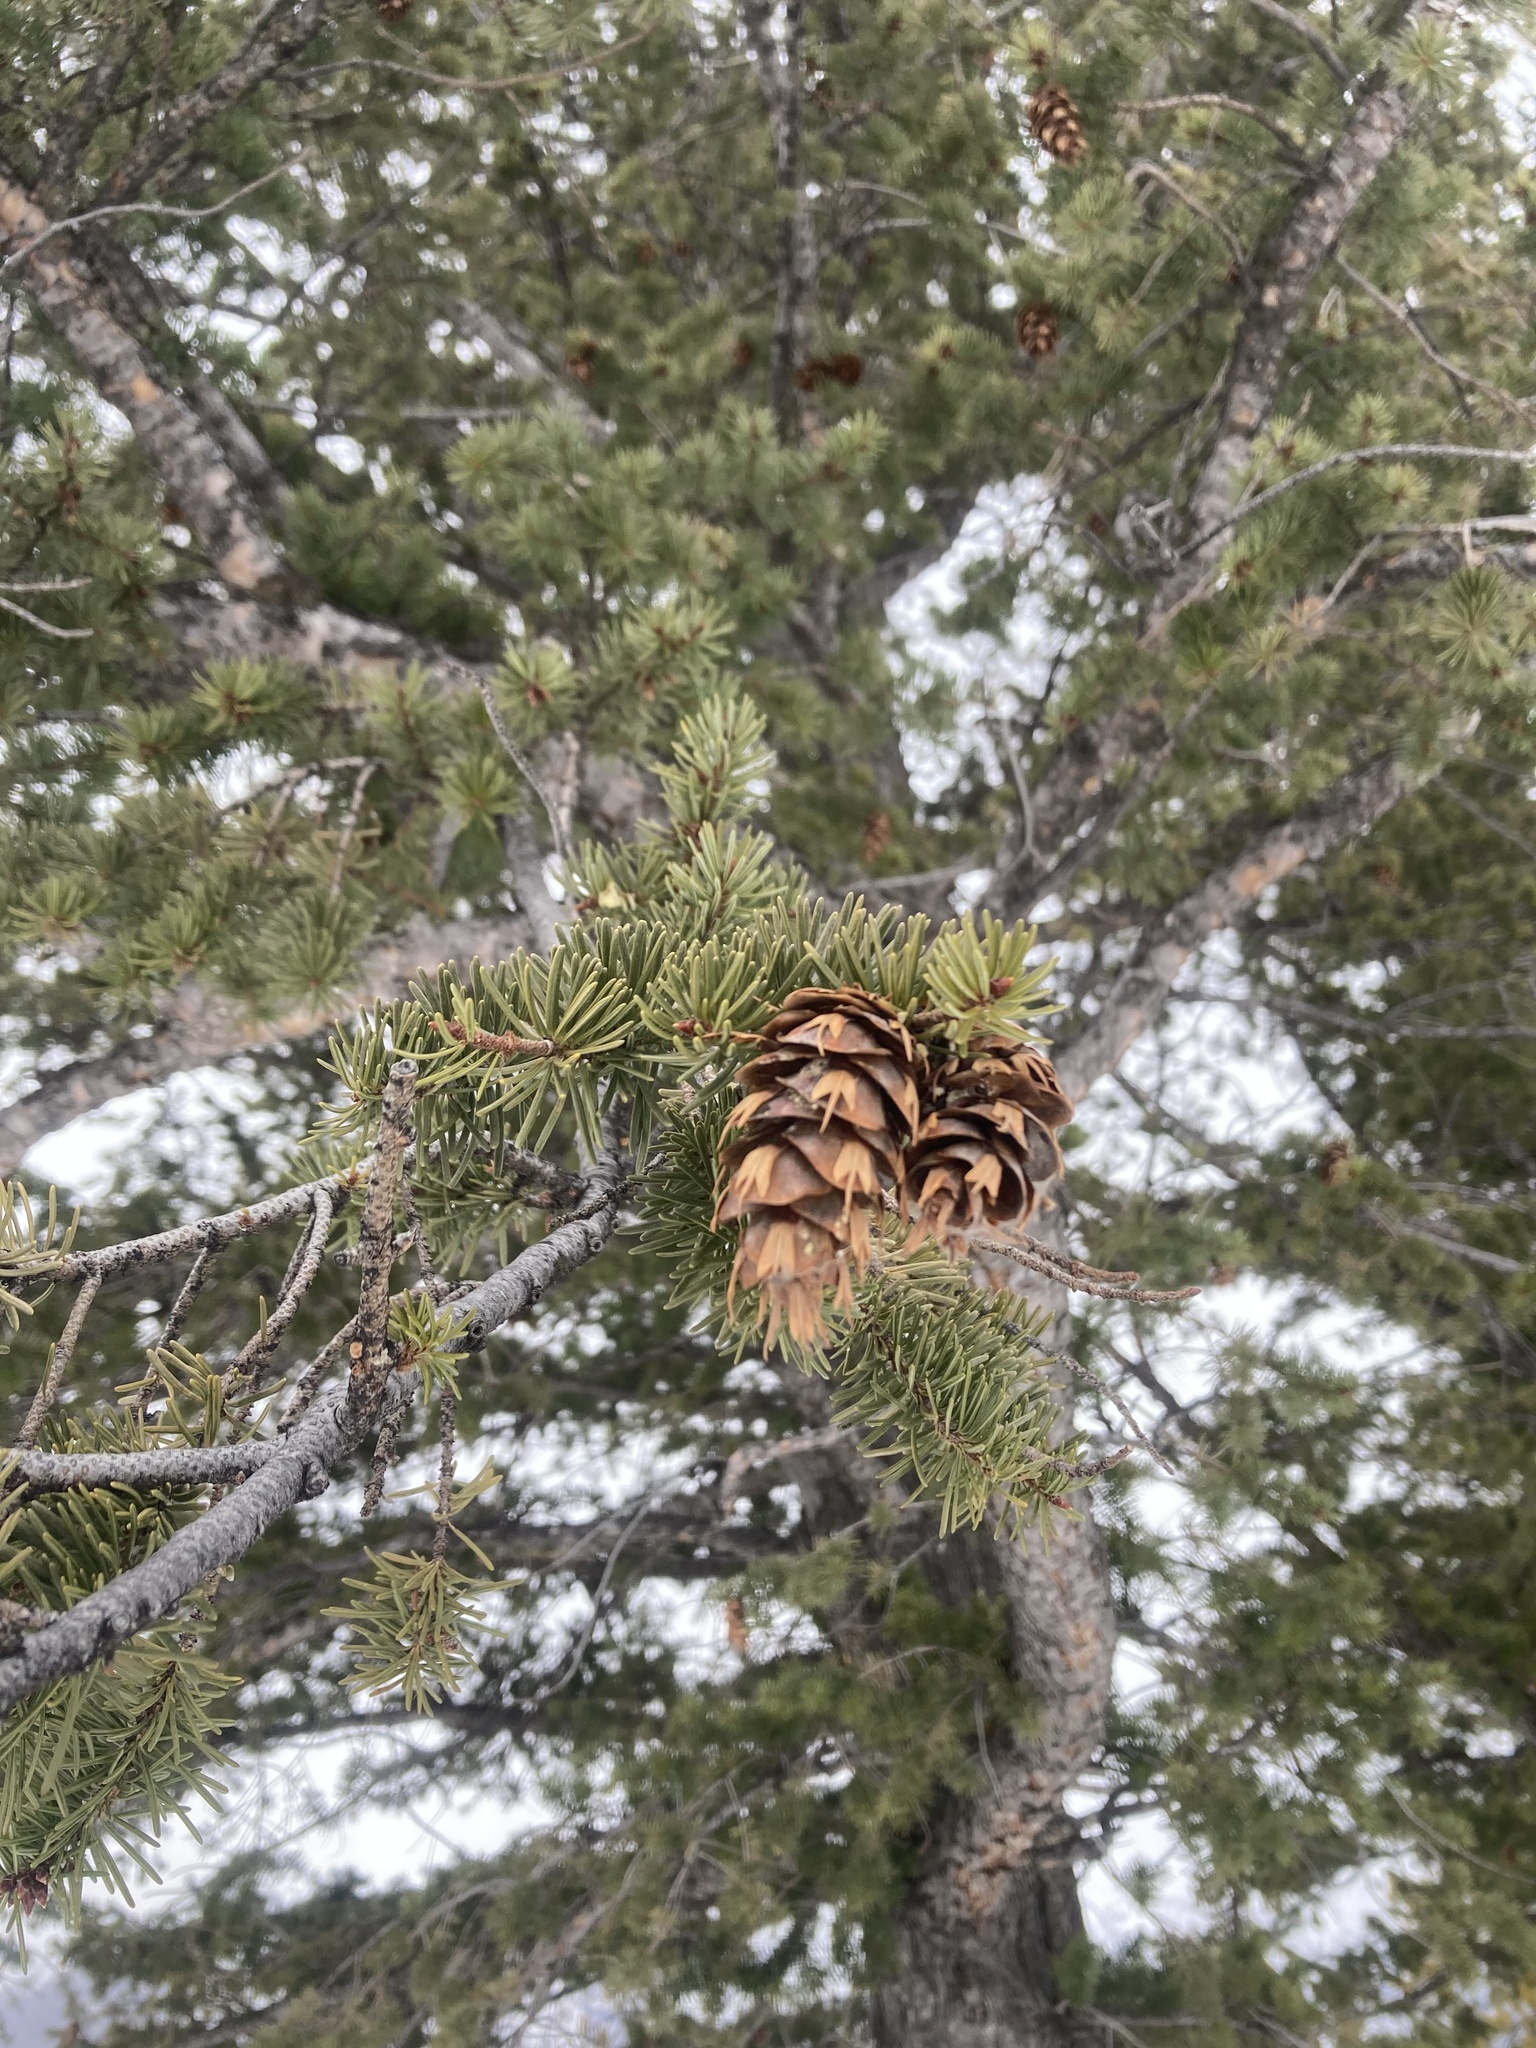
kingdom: Plantae
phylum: Tracheophyta
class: Pinopsida
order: Pinales
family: Pinaceae
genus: Pseudotsuga
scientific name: Pseudotsuga menziesii
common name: Douglas fir
